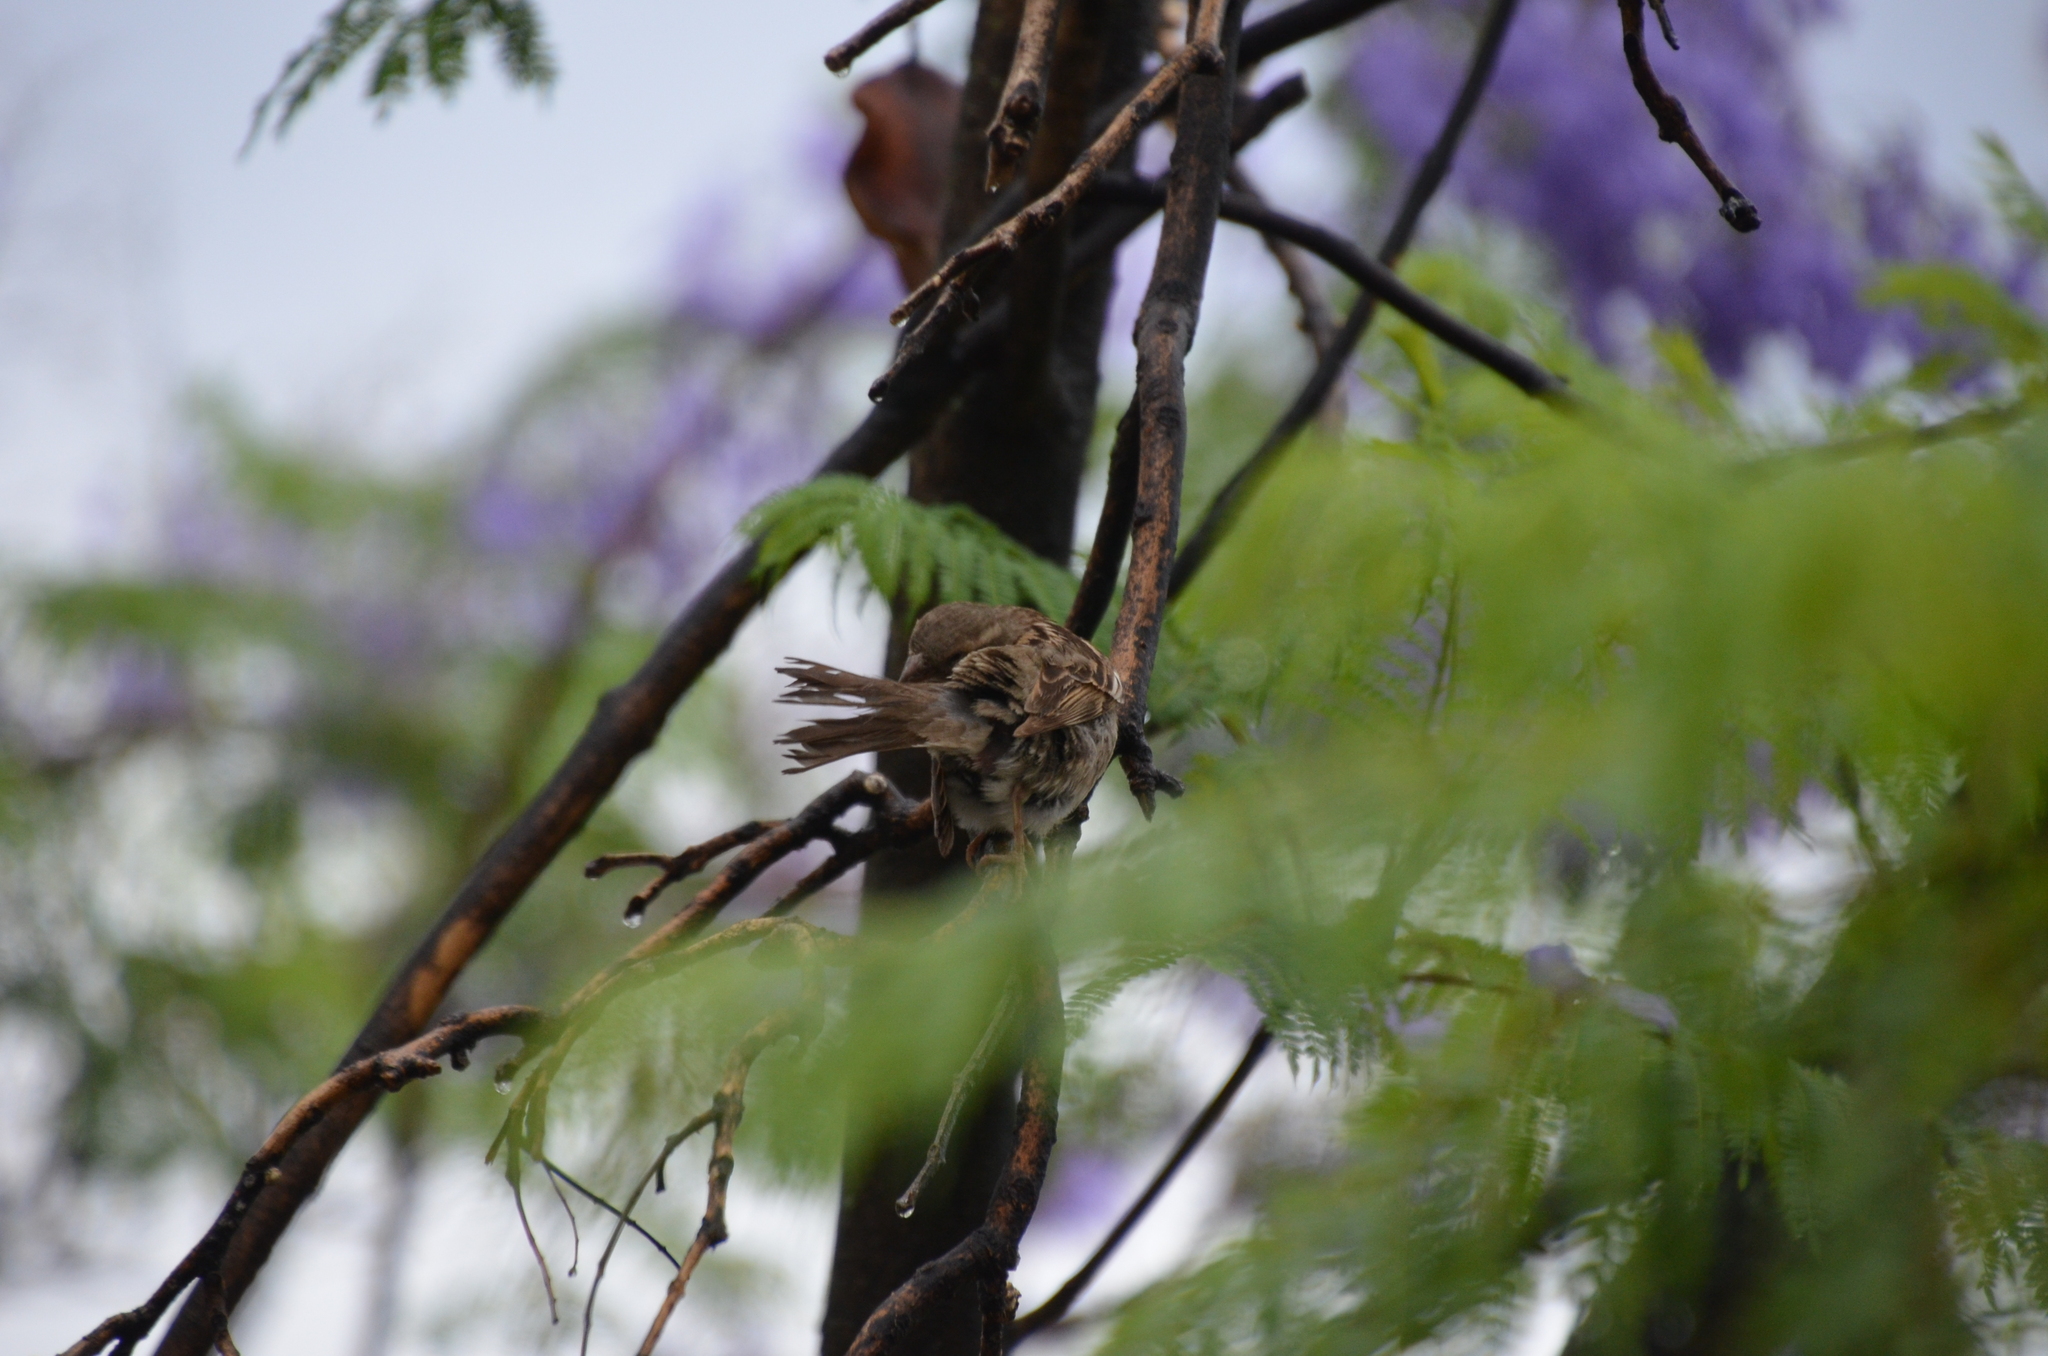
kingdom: Animalia
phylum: Chordata
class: Aves
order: Passeriformes
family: Passeridae
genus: Passer
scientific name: Passer domesticus
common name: House sparrow
